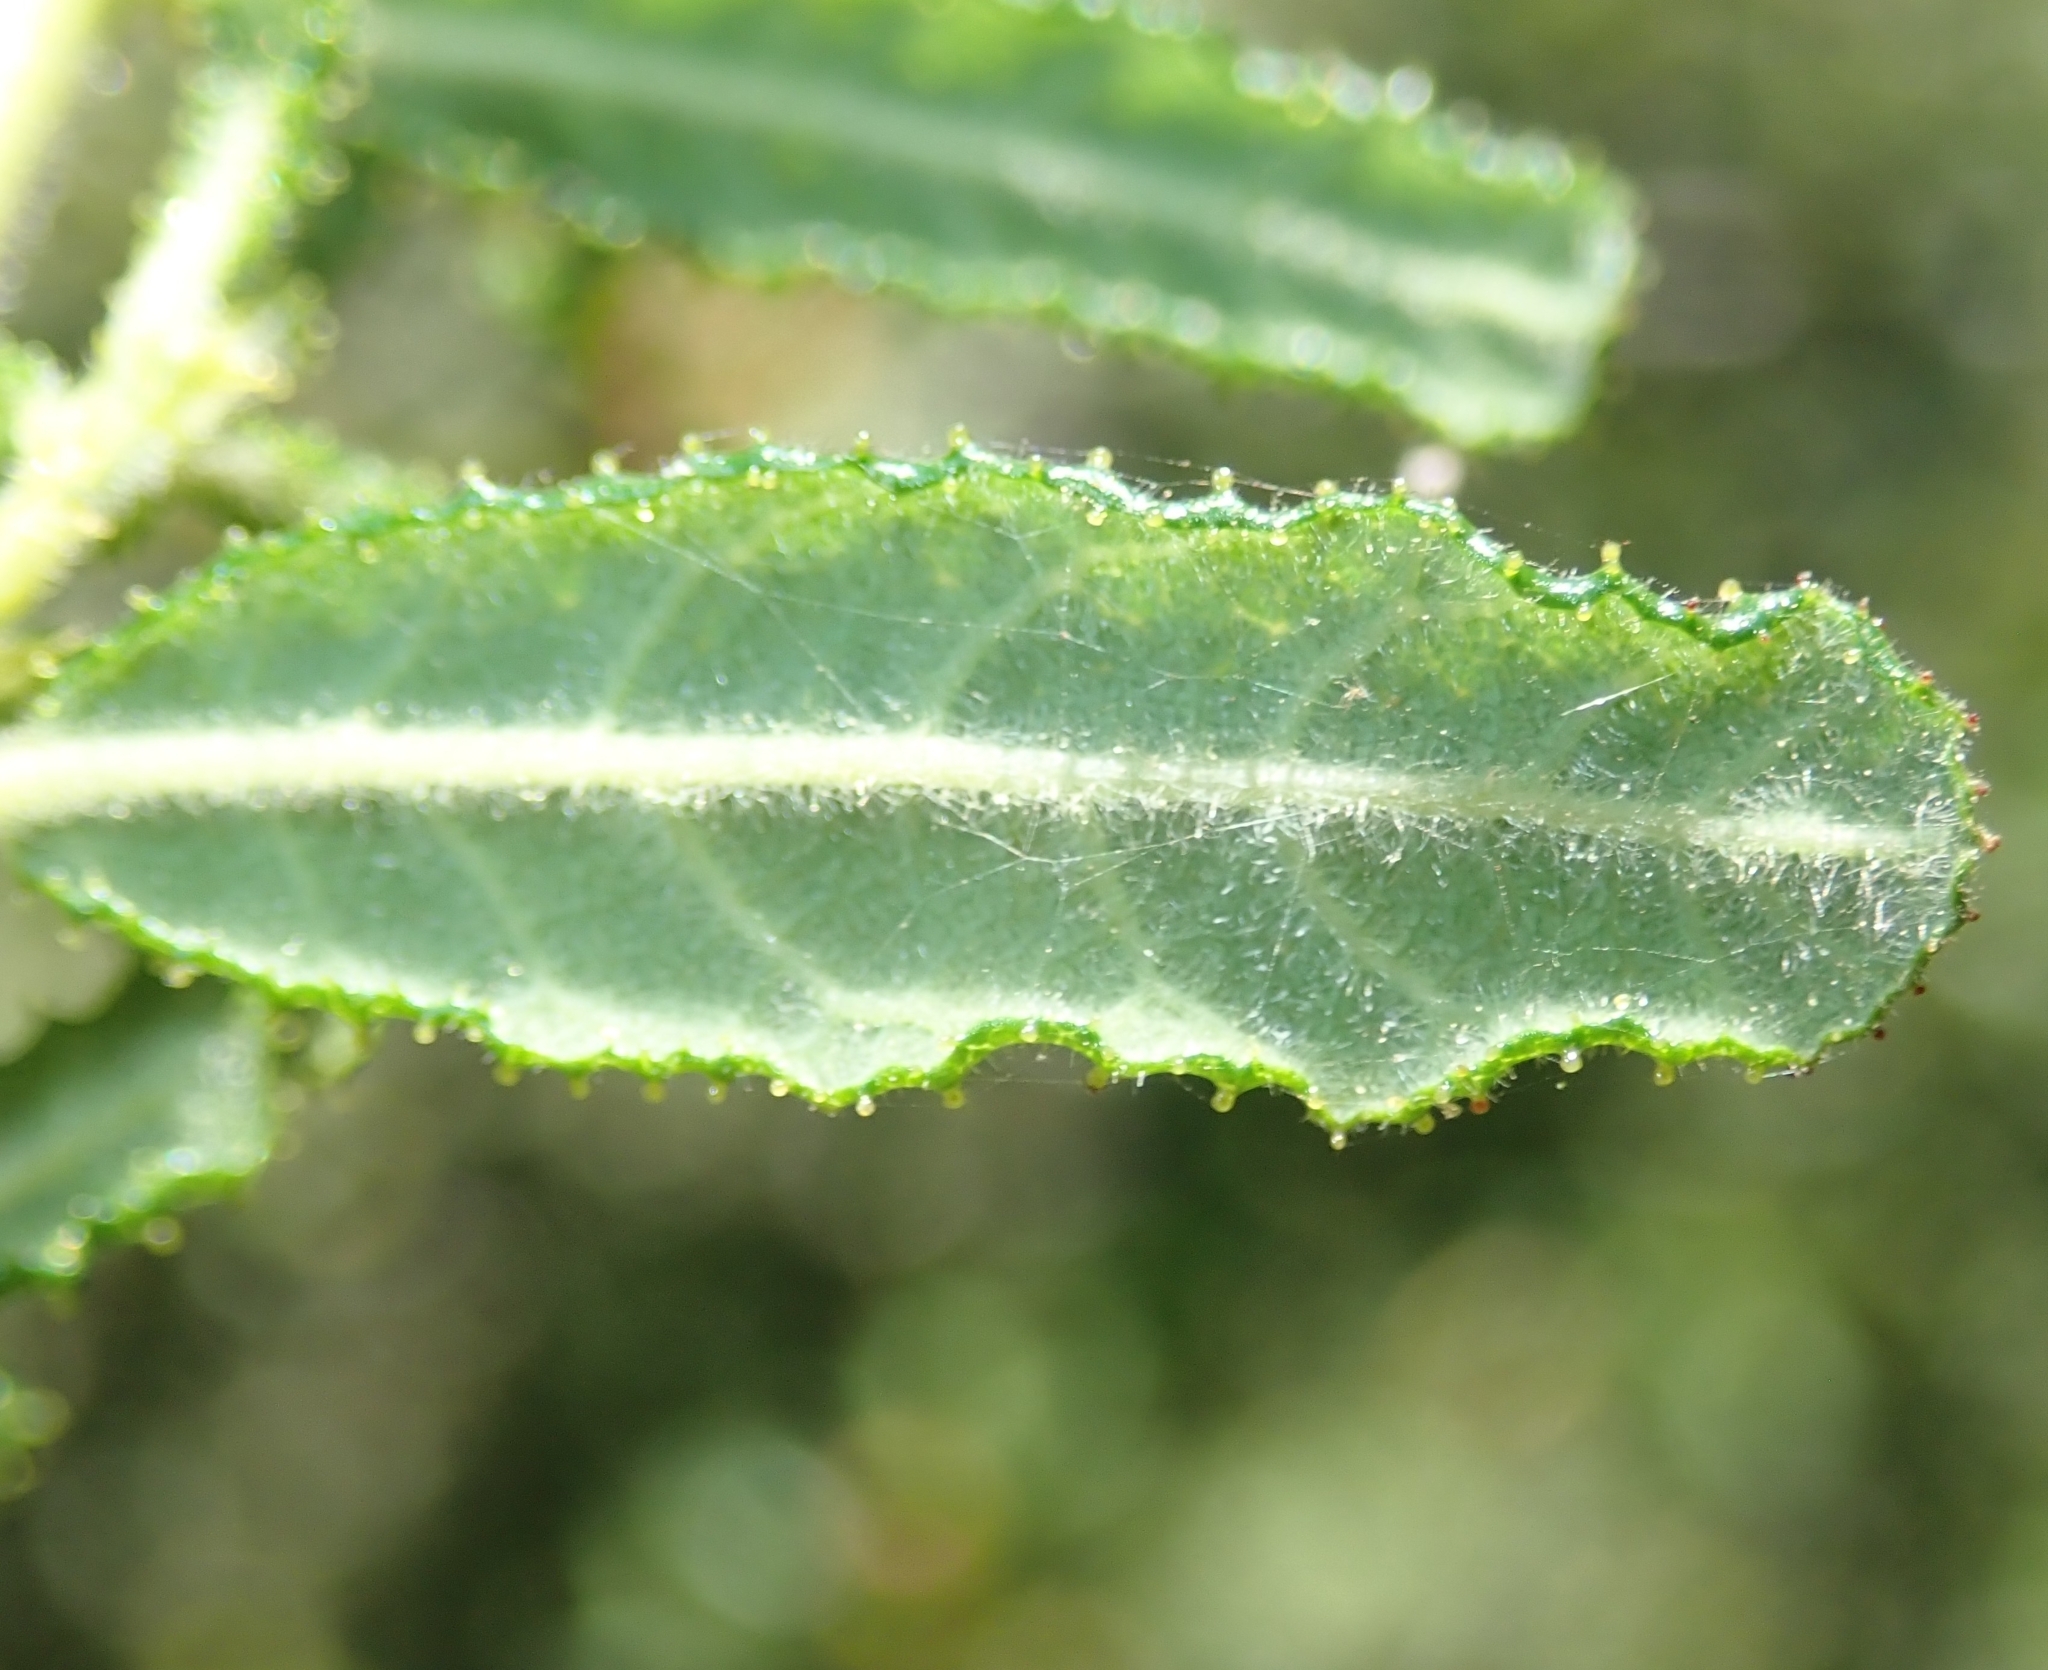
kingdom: Plantae
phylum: Tracheophyta
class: Magnoliopsida
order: Rosales
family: Rhamnaceae
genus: Ceanothus
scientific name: Ceanothus papillosus
